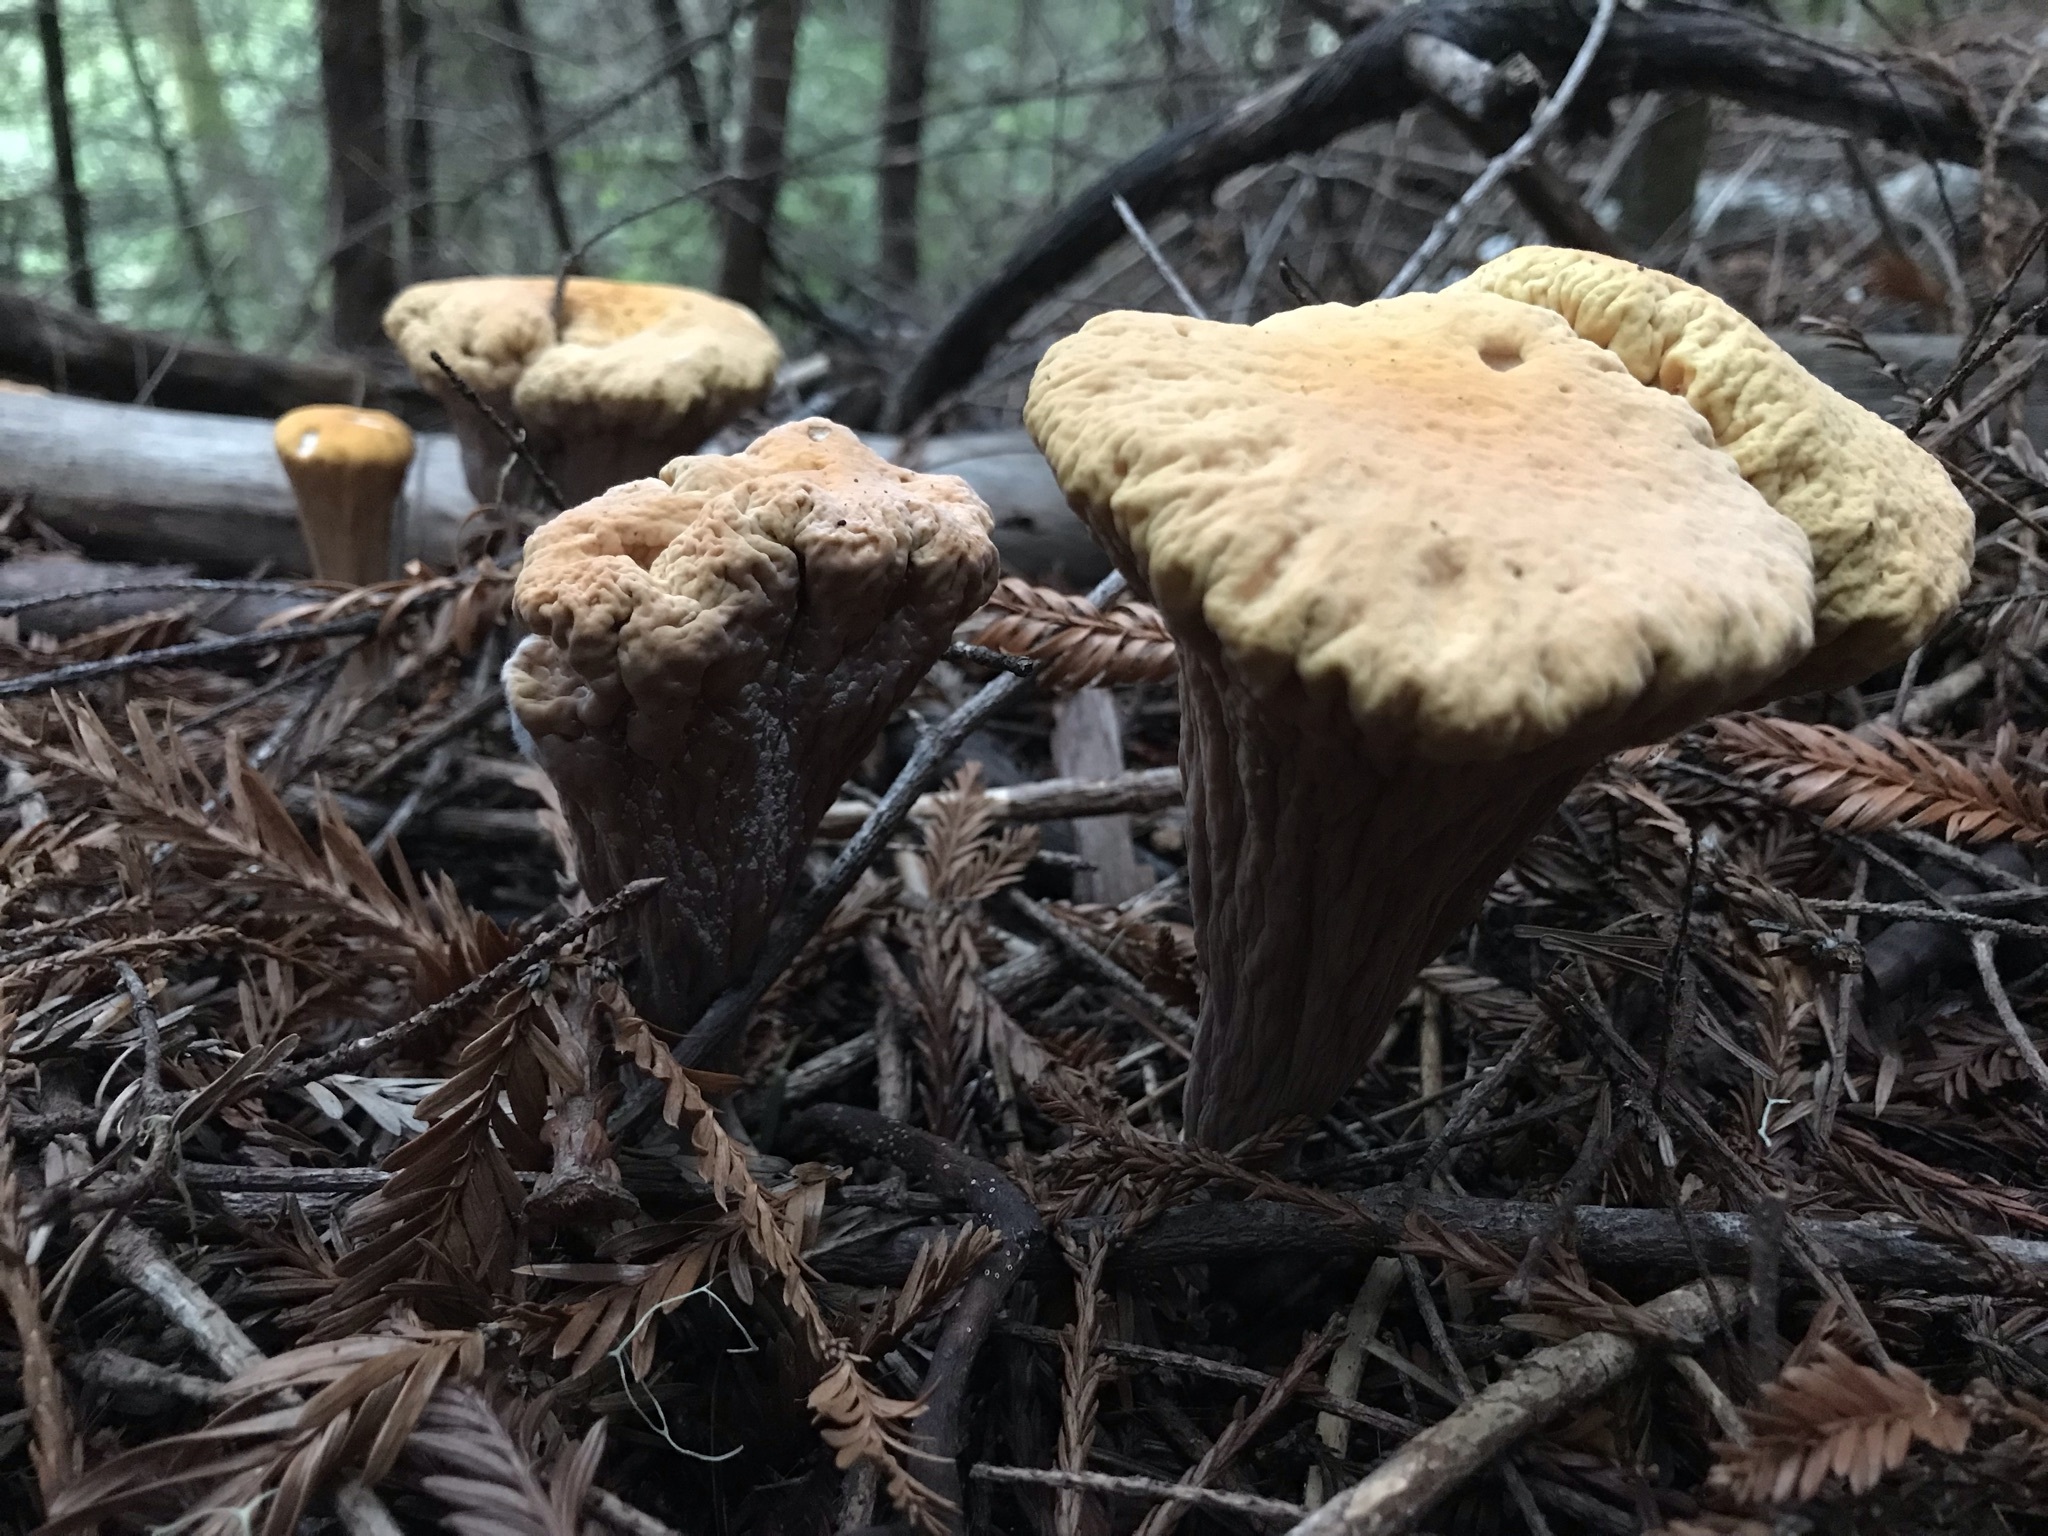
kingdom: Fungi
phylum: Basidiomycota
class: Agaricomycetes
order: Gomphales
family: Clavariadelphaceae
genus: Clavariadelphus
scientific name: Clavariadelphus truncatus
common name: Truncated club
